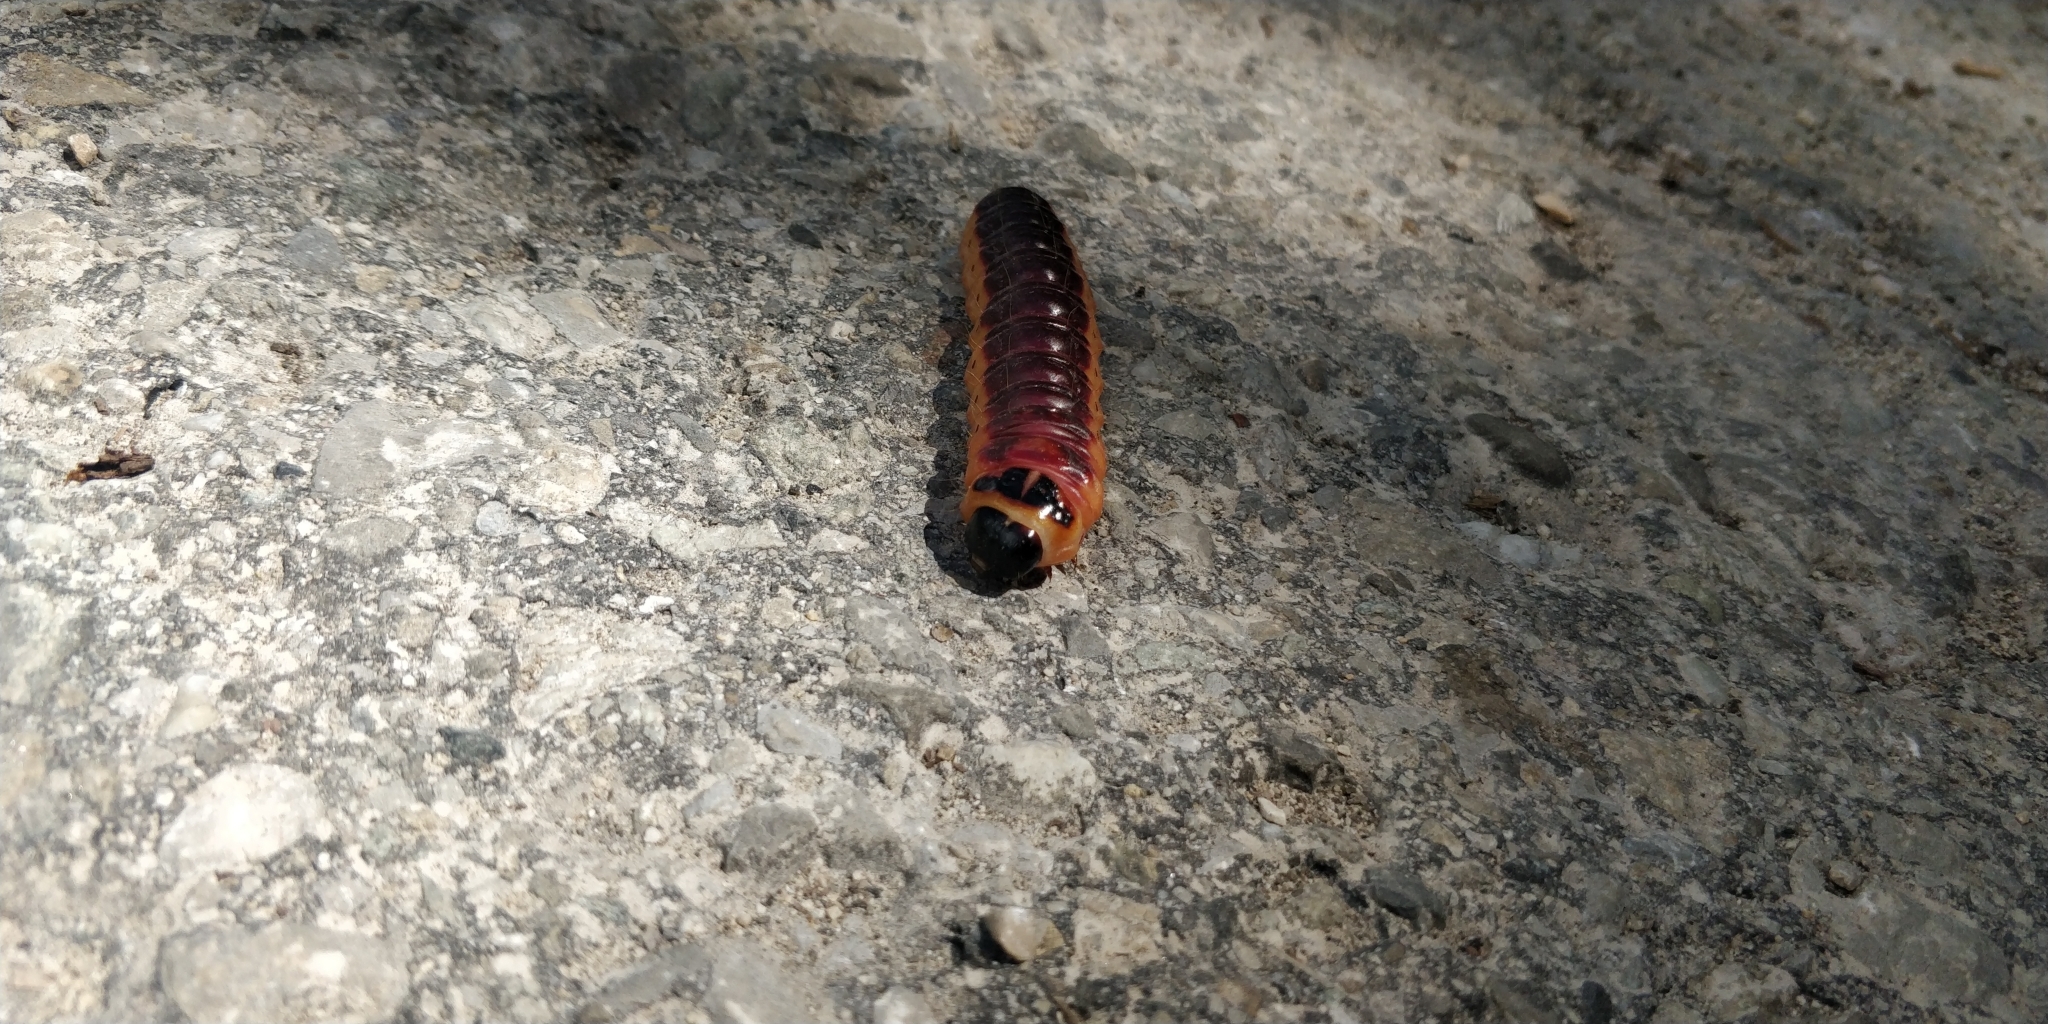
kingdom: Animalia
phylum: Arthropoda
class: Insecta
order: Lepidoptera
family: Cossidae
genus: Cossus
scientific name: Cossus cossus
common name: Goat moth
